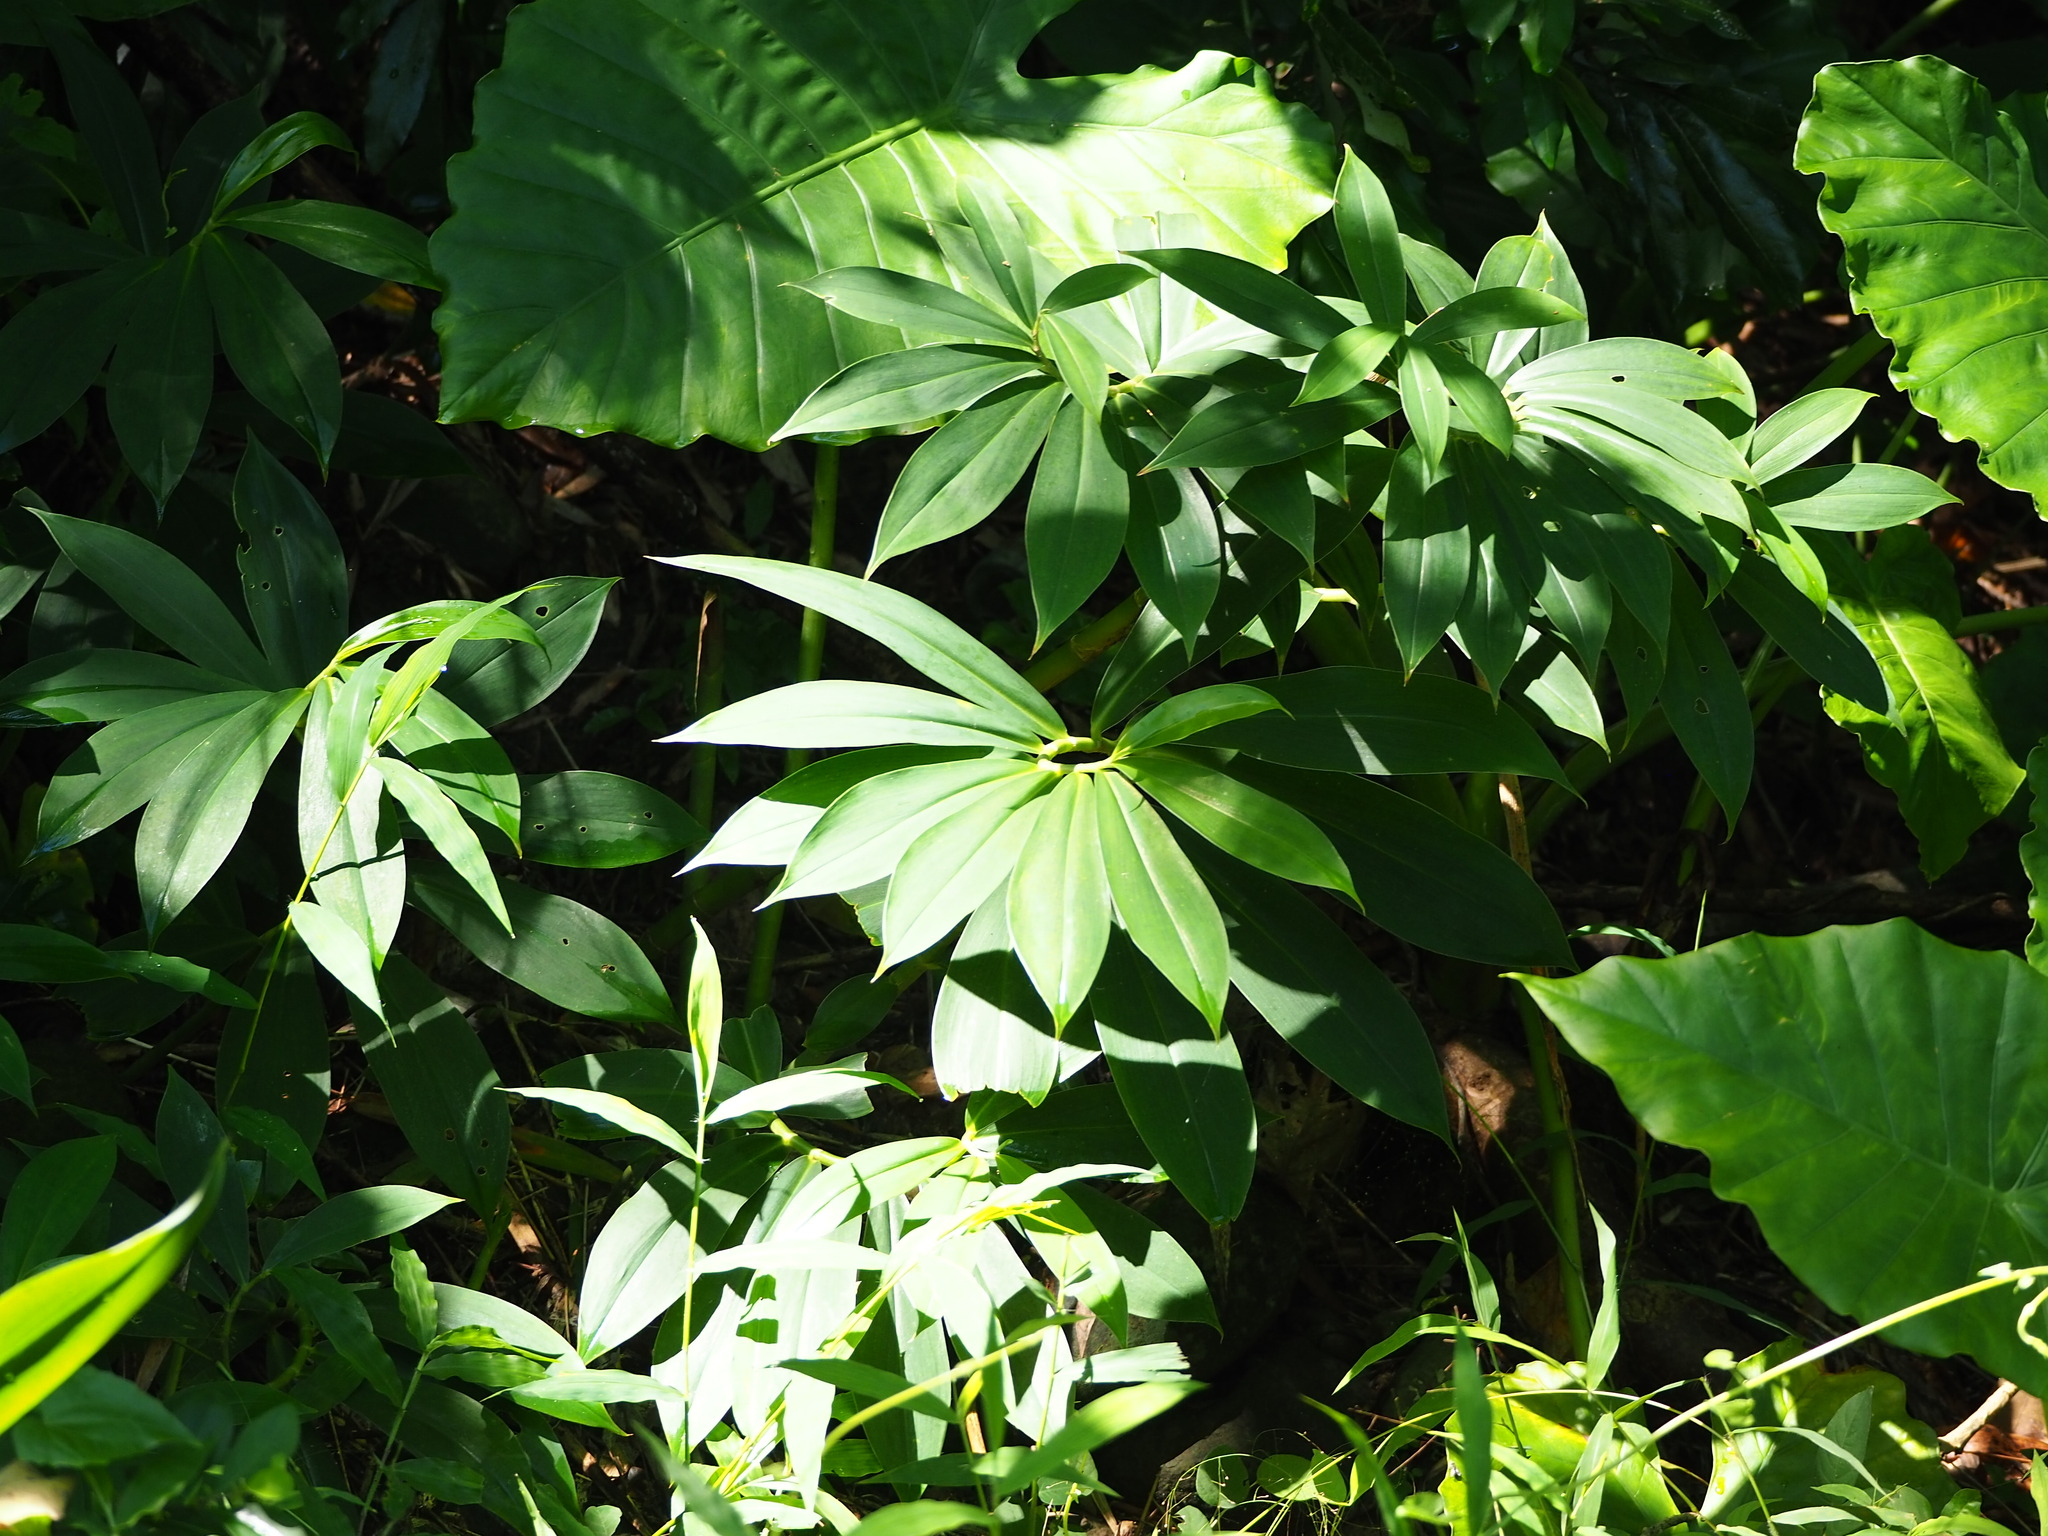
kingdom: Plantae
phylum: Tracheophyta
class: Liliopsida
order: Zingiberales
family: Costaceae
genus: Hellenia
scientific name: Hellenia speciosa
